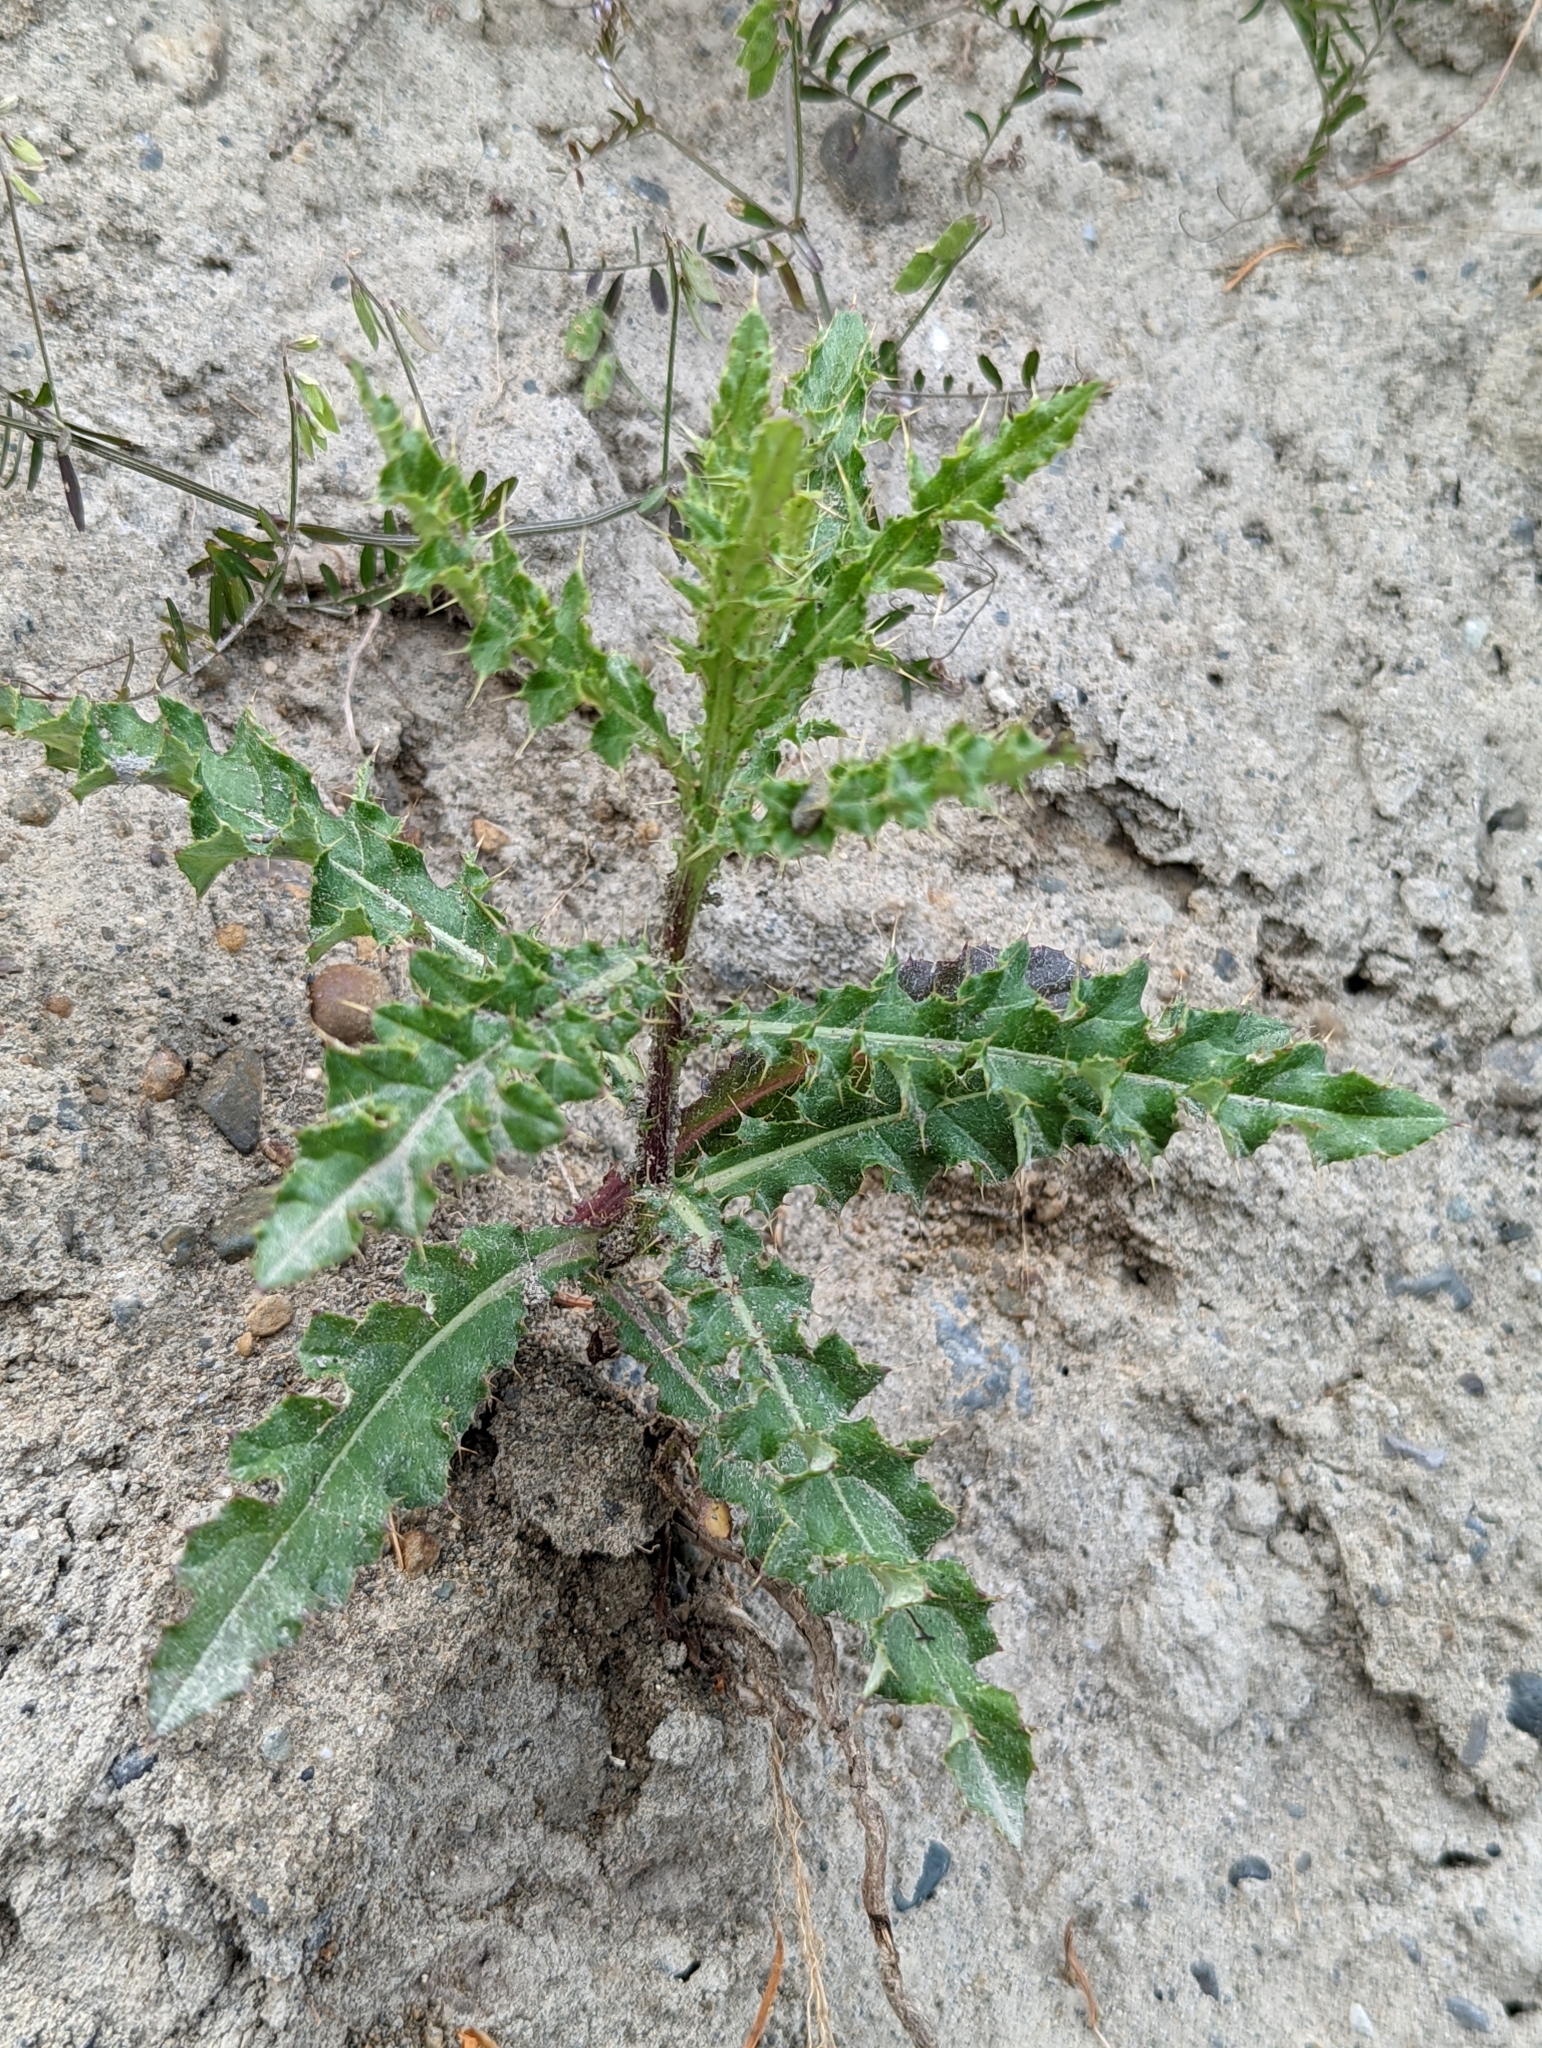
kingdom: Plantae
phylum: Tracheophyta
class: Magnoliopsida
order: Asterales
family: Asteraceae
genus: Cirsium
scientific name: Cirsium arvense
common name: Creeping thistle
